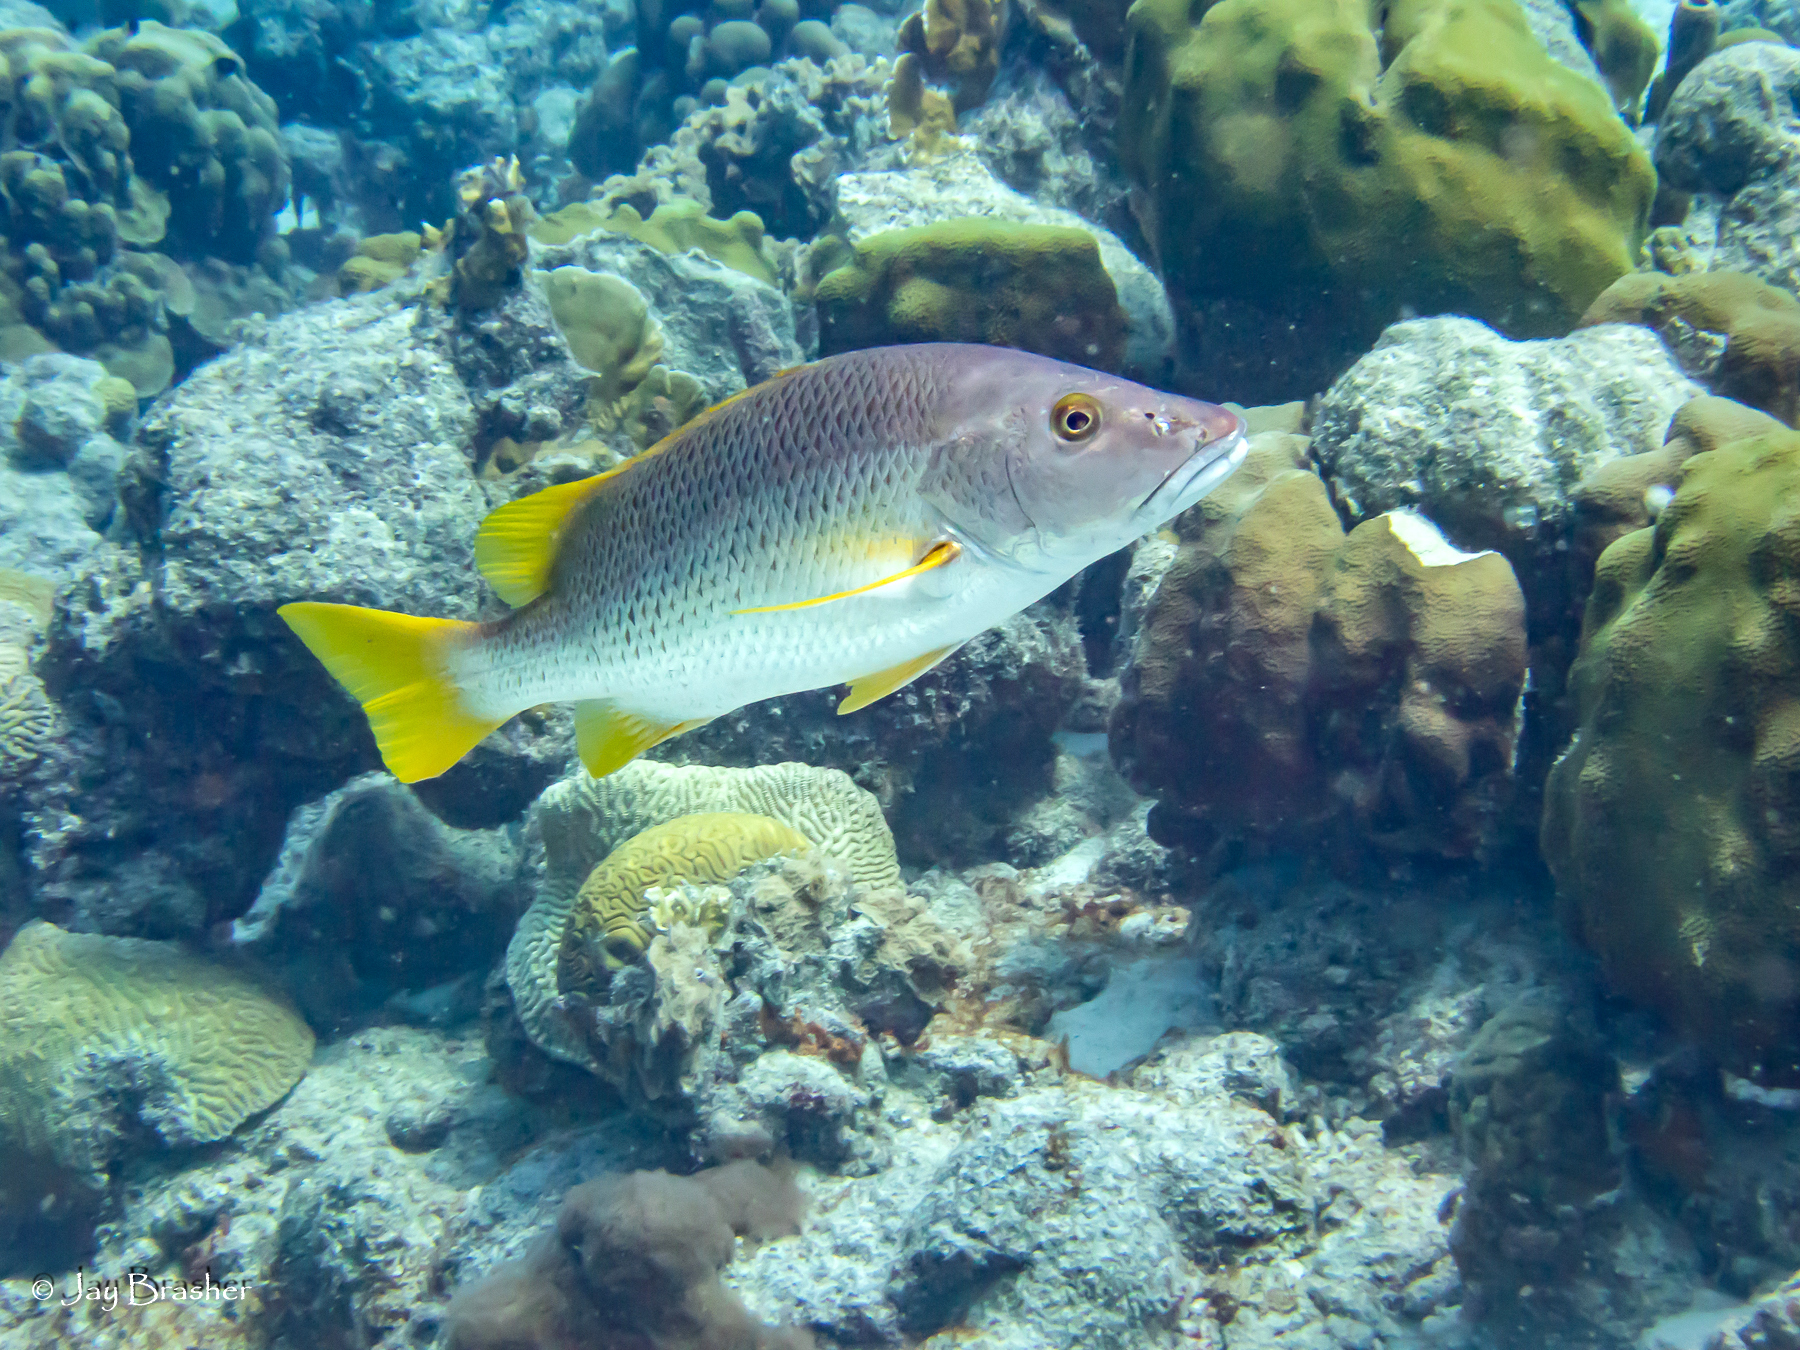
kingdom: Animalia
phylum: Chordata
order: Perciformes
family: Lutjanidae
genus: Lutjanus
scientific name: Lutjanus apodus
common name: Schoolmaster
